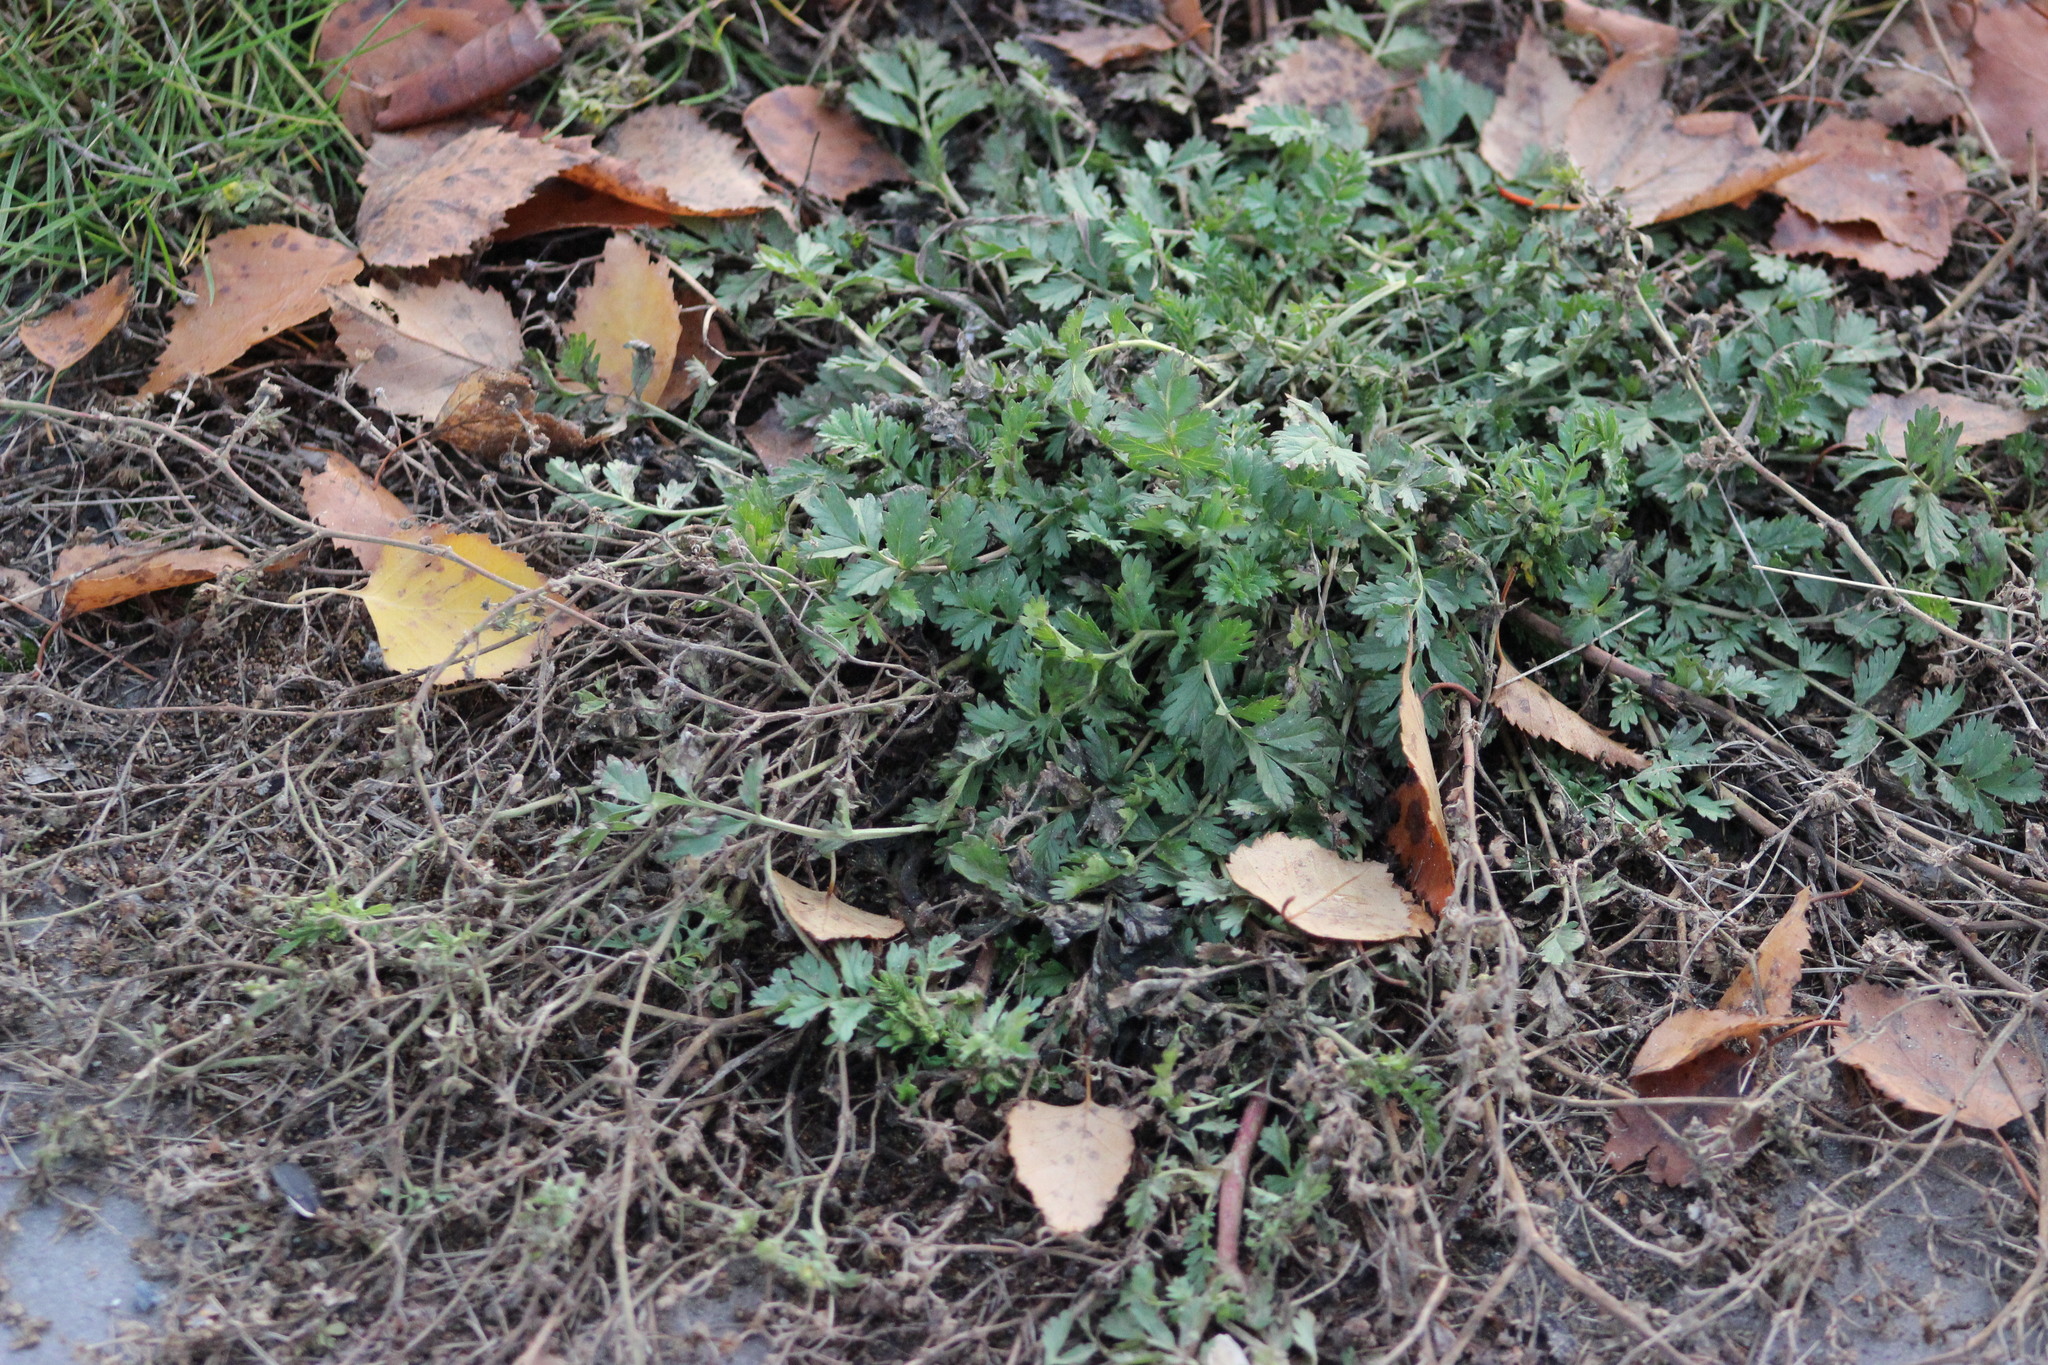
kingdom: Plantae
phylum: Tracheophyta
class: Magnoliopsida
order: Rosales
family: Rosaceae
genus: Potentilla
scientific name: Potentilla supina
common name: Prostrate cinquefoil
